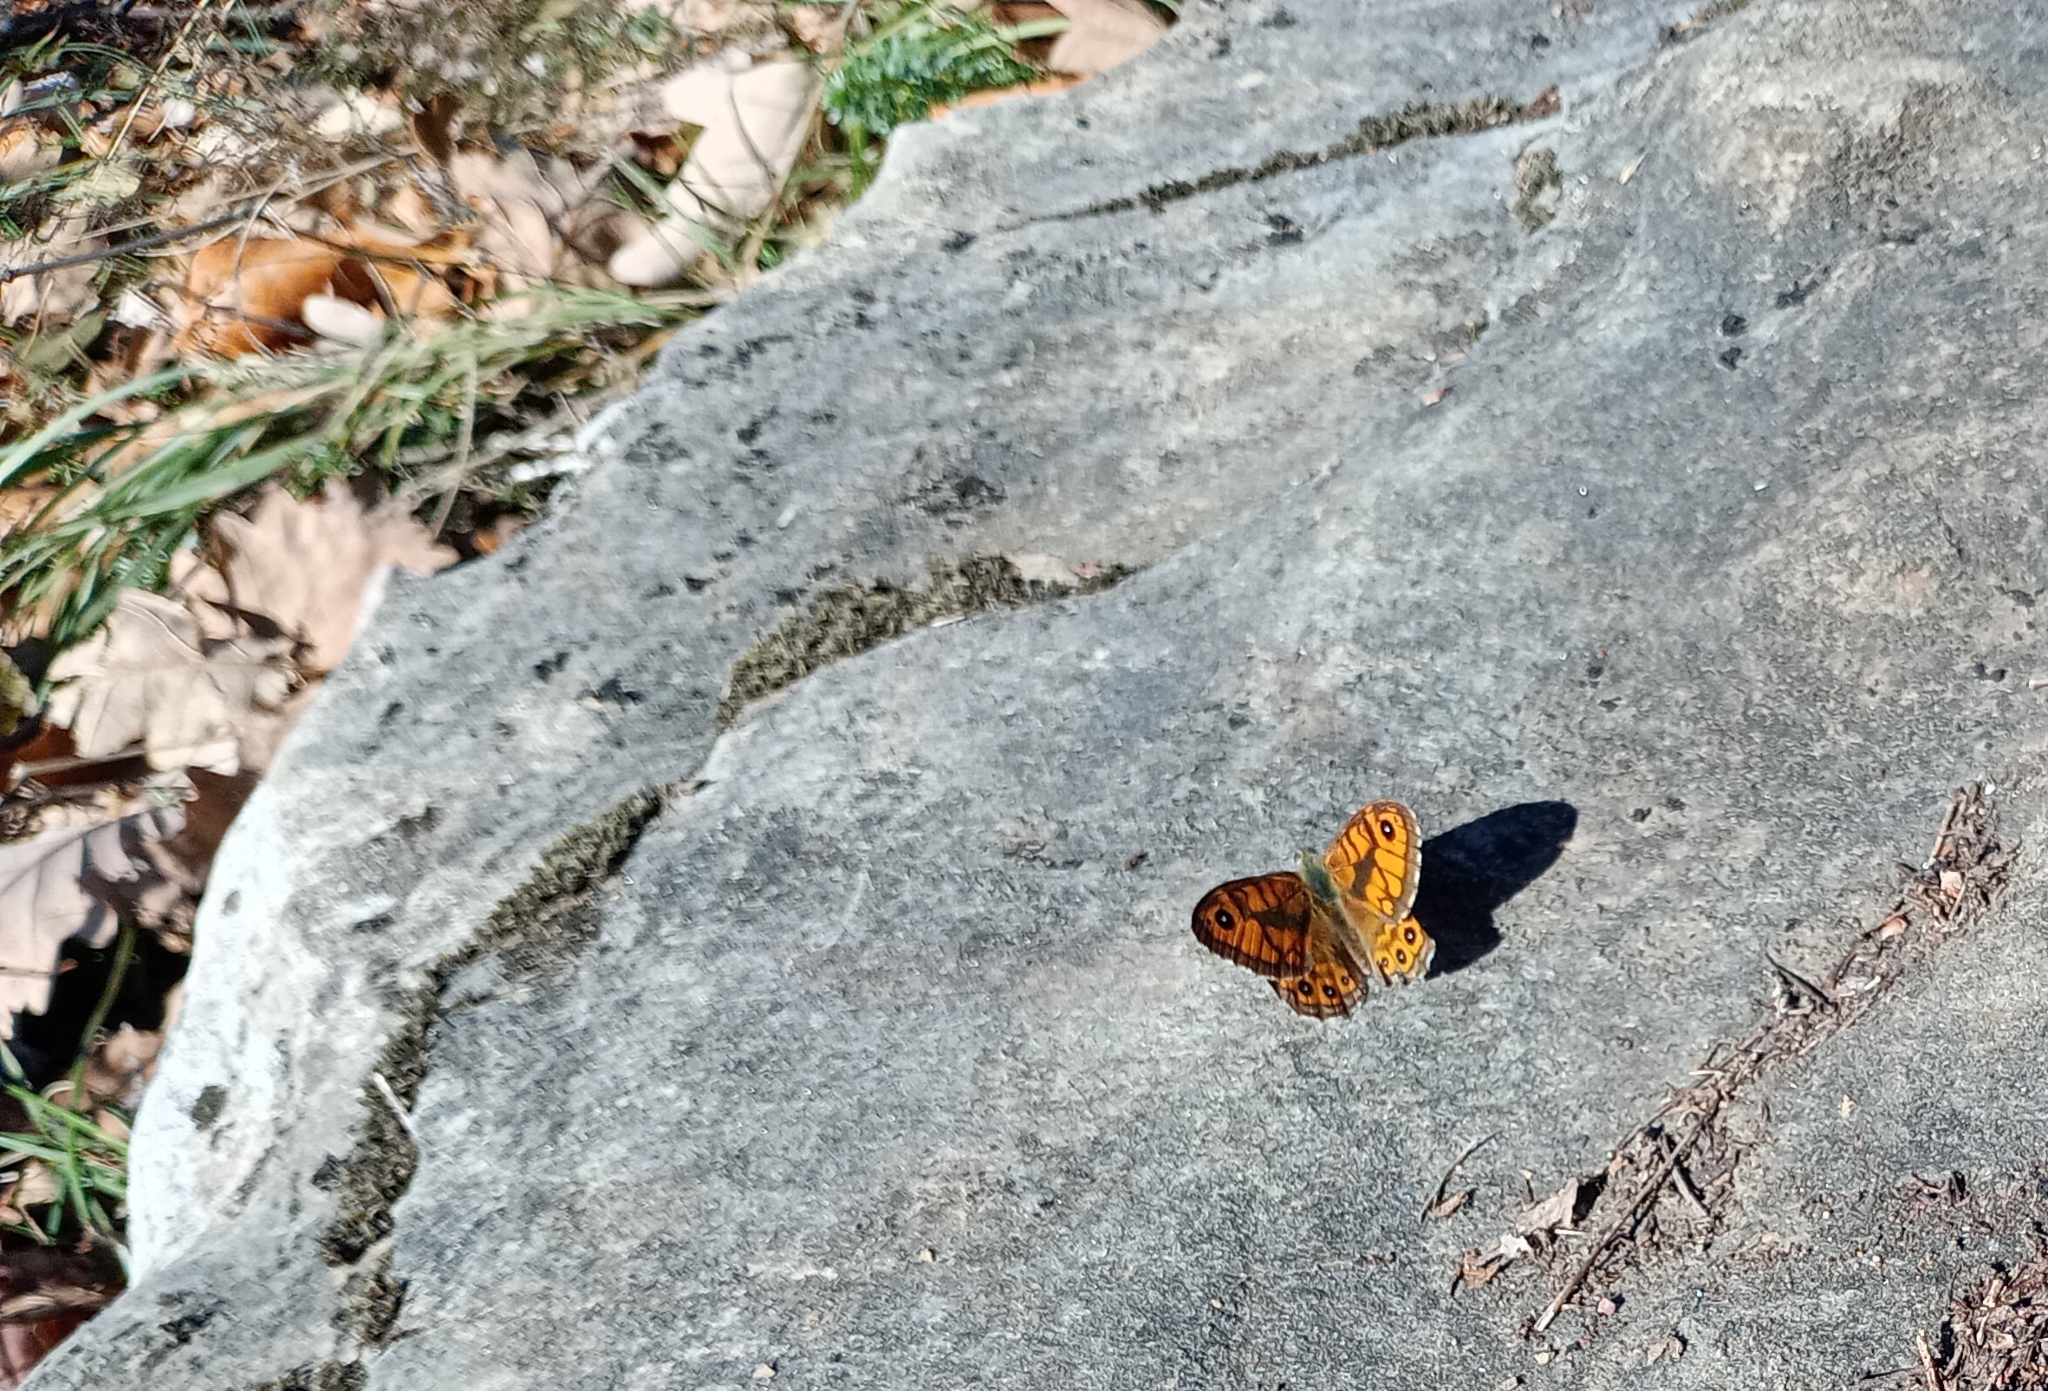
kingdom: Animalia
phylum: Arthropoda
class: Insecta
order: Lepidoptera
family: Nymphalidae
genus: Pararge
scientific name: Pararge Lasiommata megera
